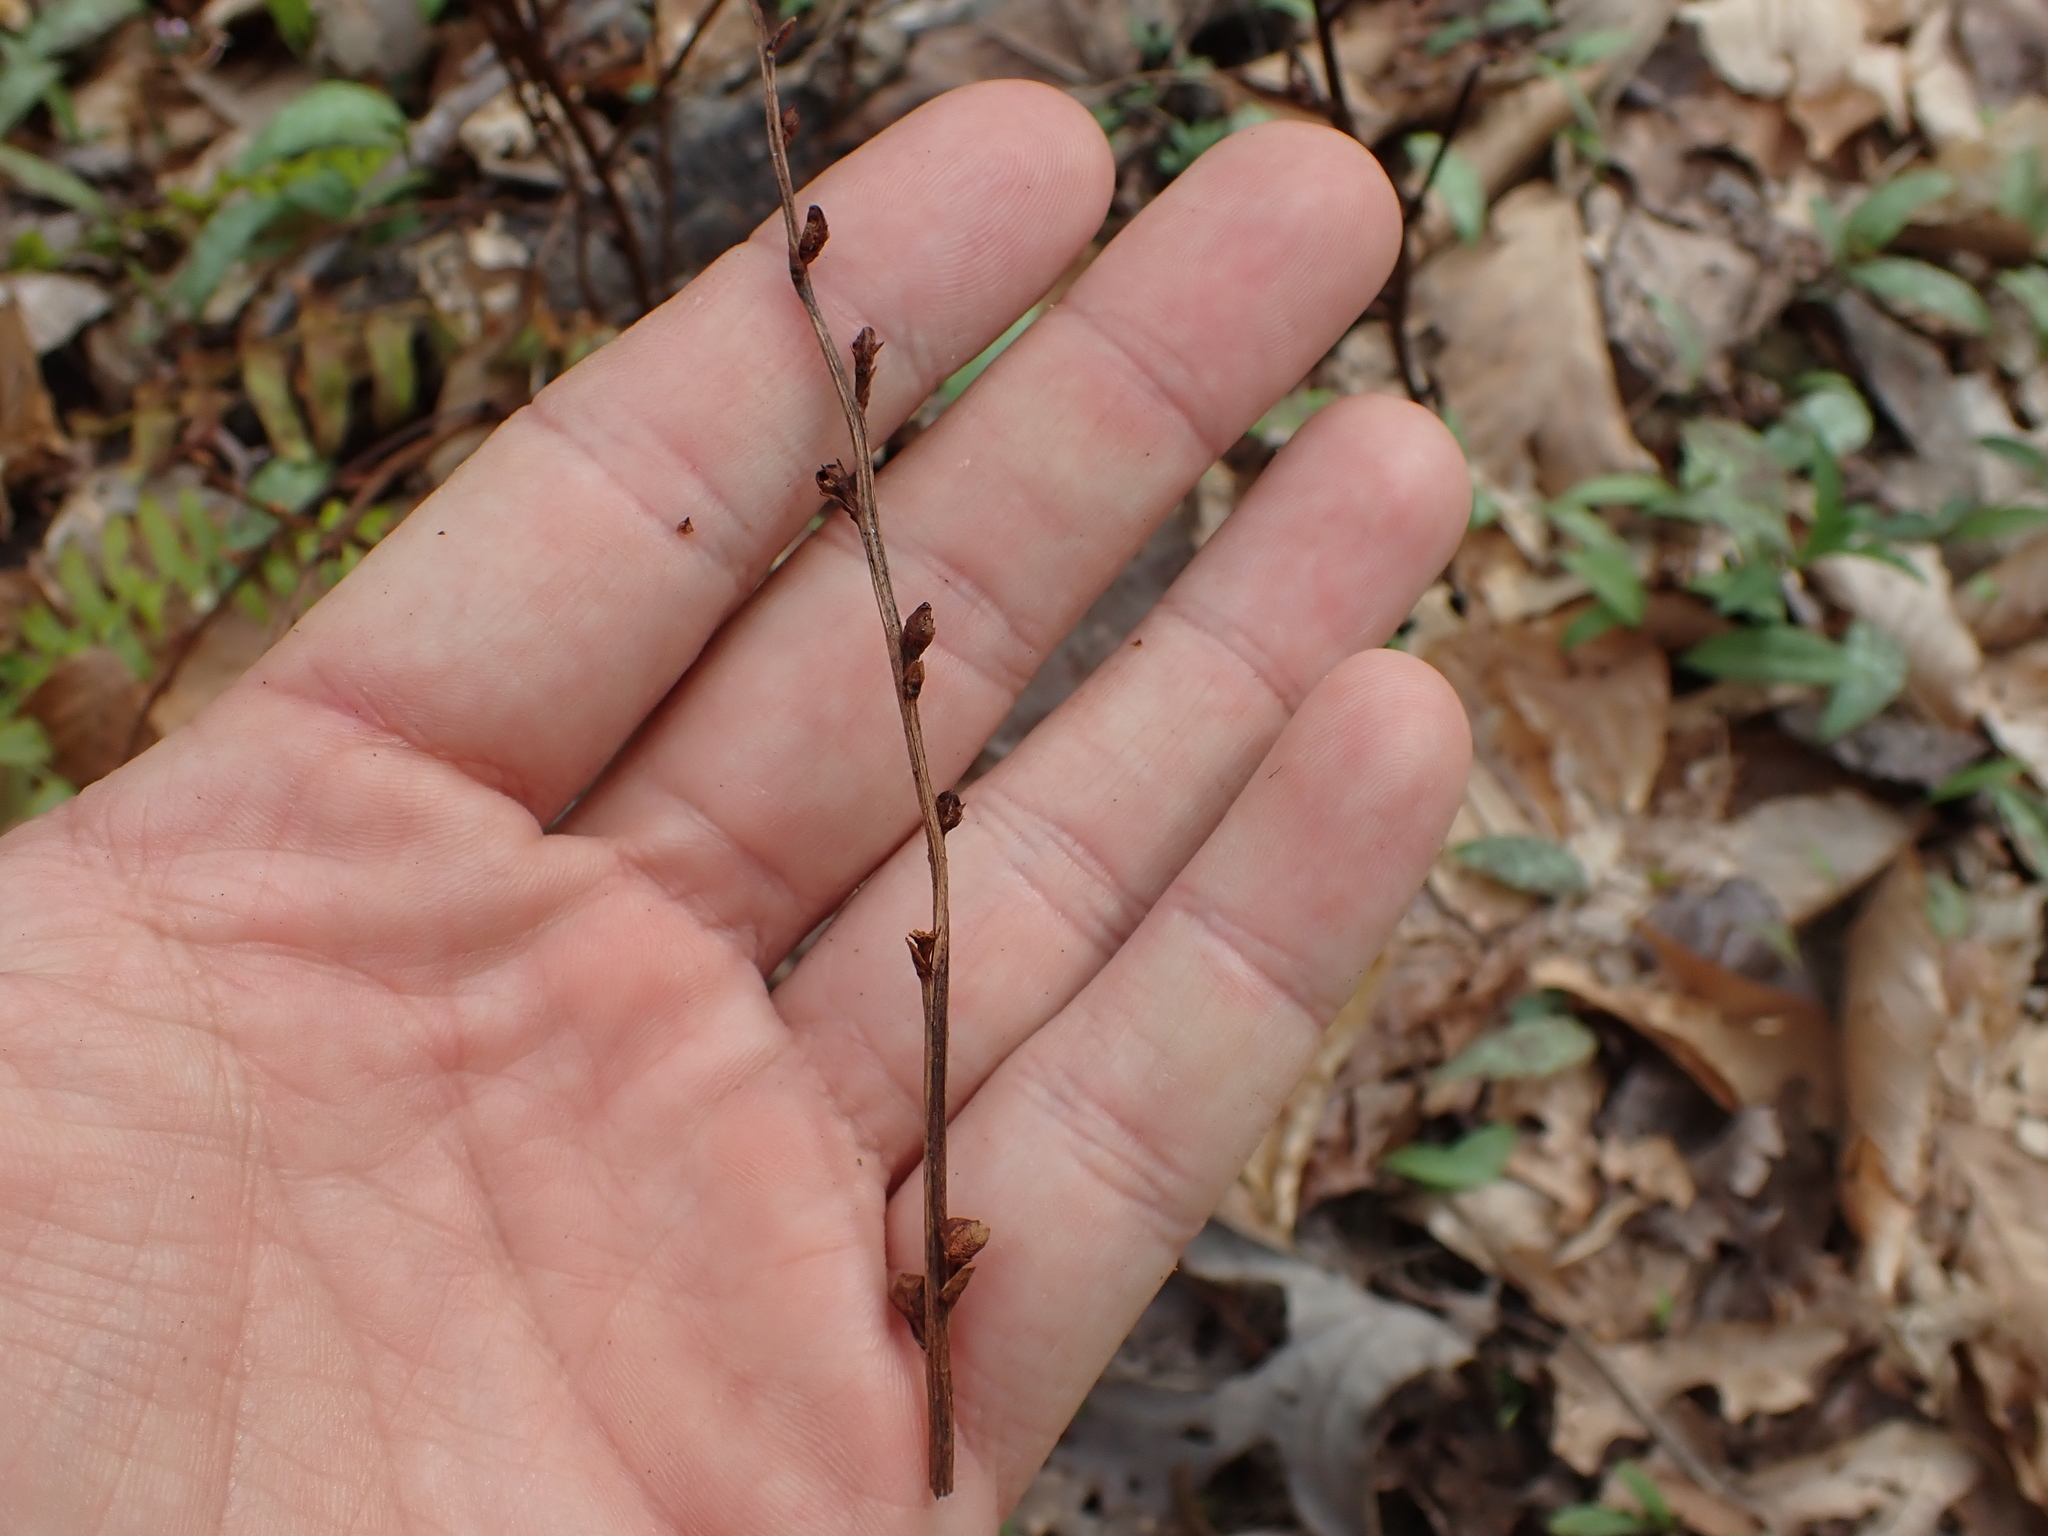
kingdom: Plantae
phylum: Tracheophyta
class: Magnoliopsida
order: Lamiales
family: Orobanchaceae
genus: Epifagus
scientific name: Epifagus virginiana
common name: Beechdrops
